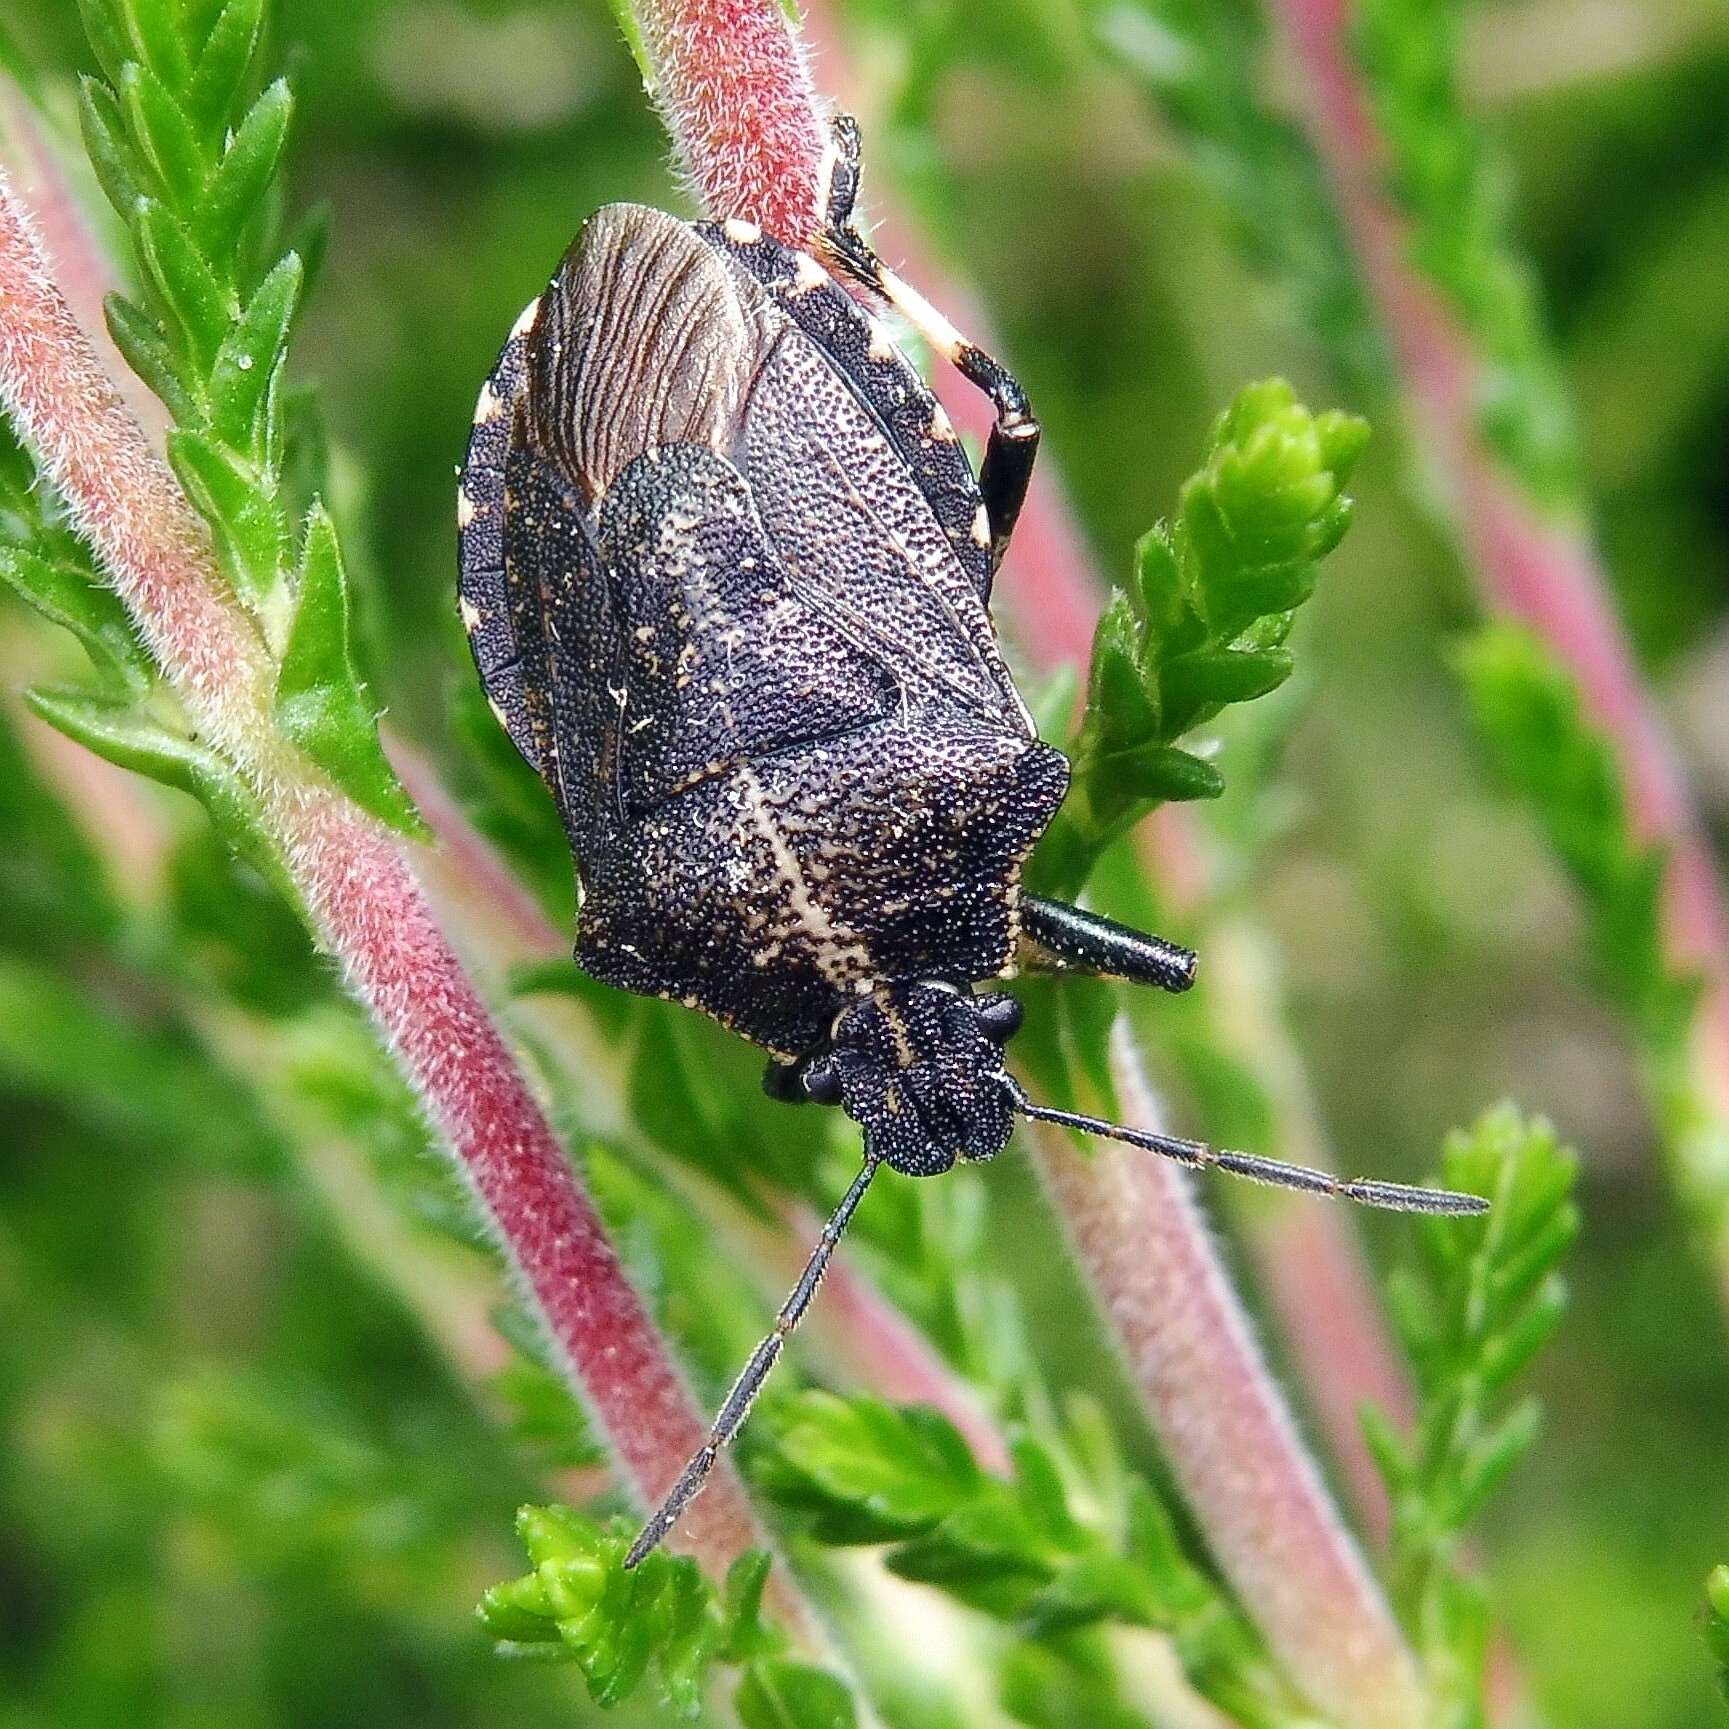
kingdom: Animalia
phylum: Arthropoda
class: Insecta
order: Hemiptera
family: Pentatomidae
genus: Rhacognathus
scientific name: Rhacognathus punctatus
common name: Heather bug
